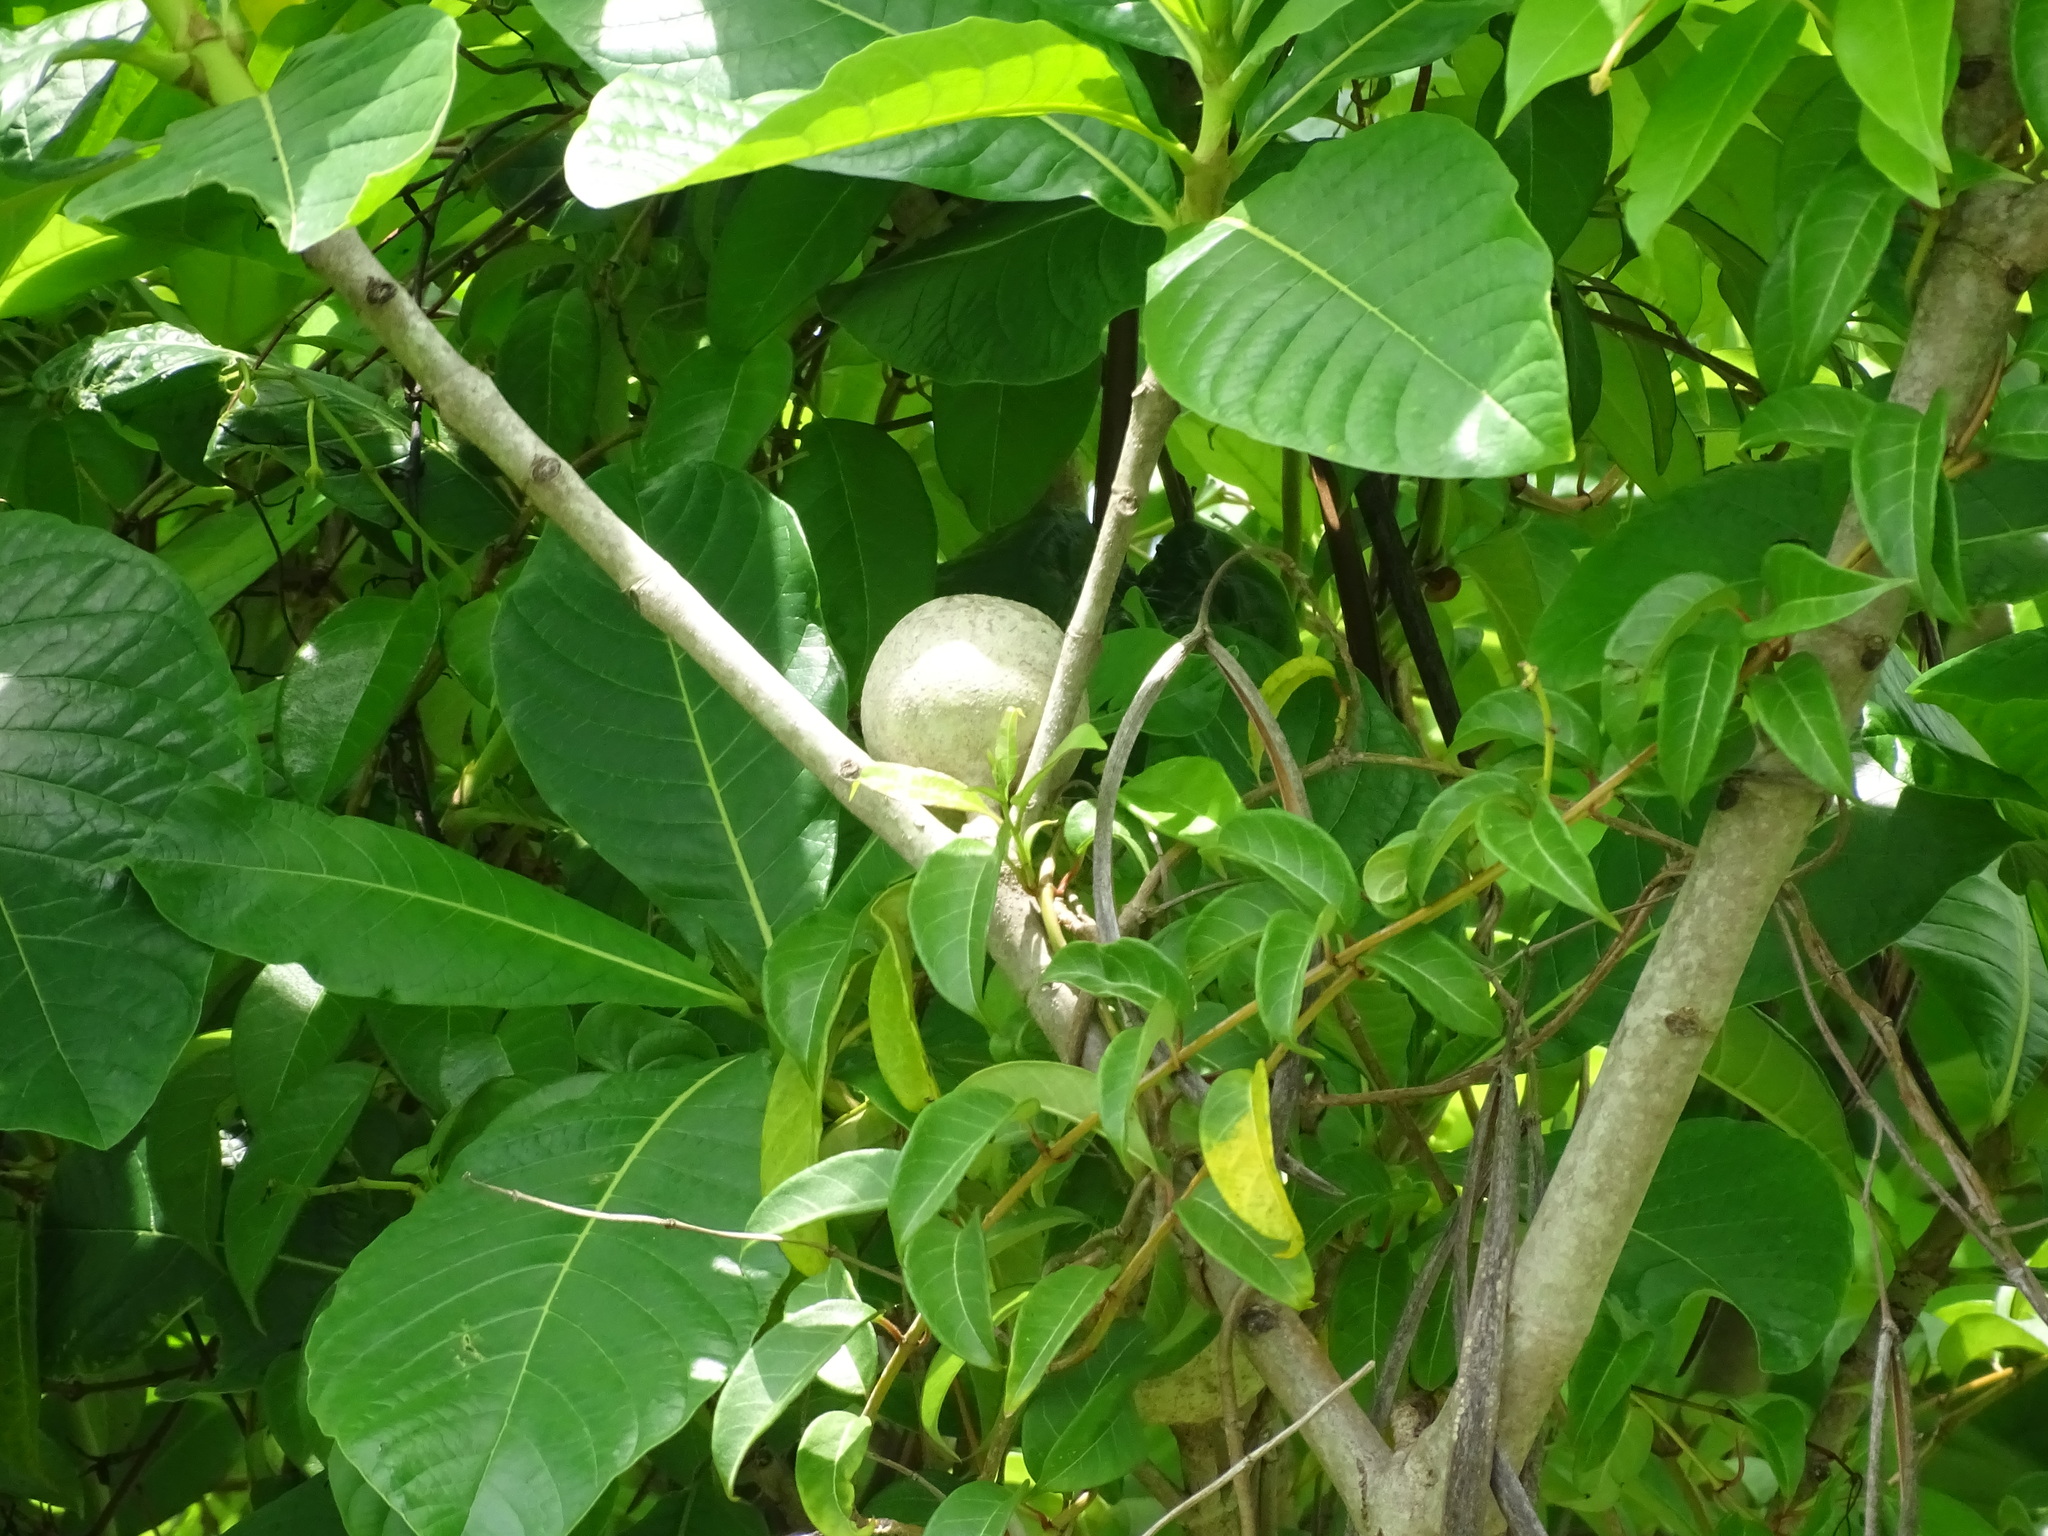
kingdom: Plantae
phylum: Tracheophyta
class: Magnoliopsida
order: Gentianales
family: Rubiaceae
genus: Genipa
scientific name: Genipa americana
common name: Genipap
